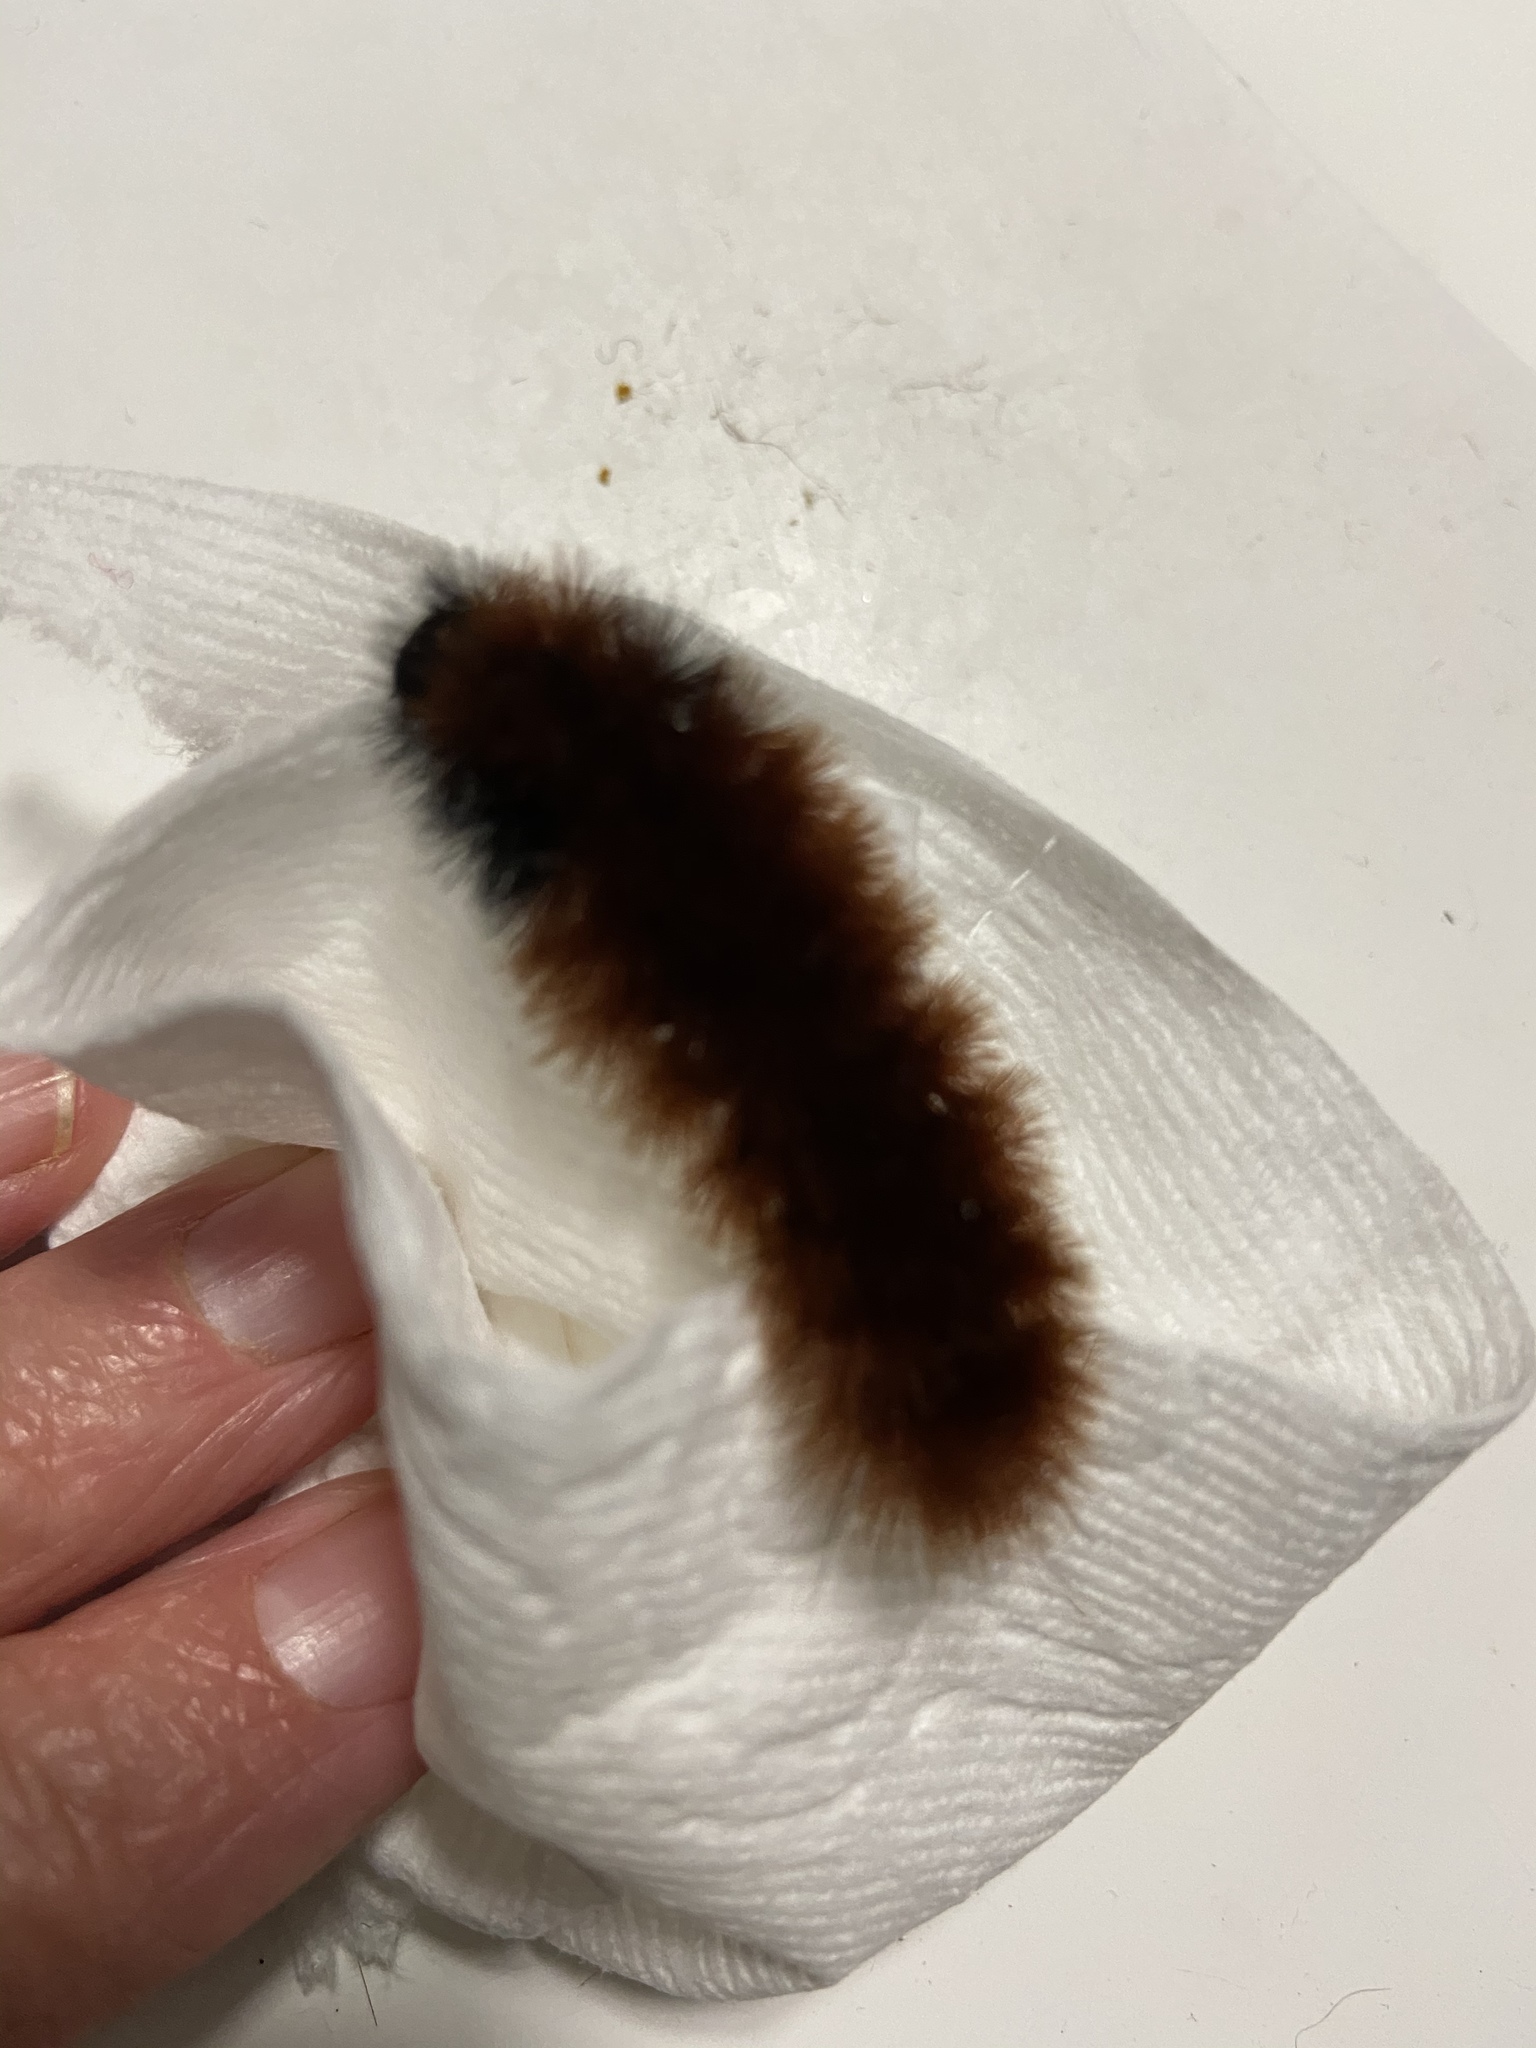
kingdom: Animalia
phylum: Arthropoda
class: Insecta
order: Lepidoptera
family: Erebidae
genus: Pyrrharctia
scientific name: Pyrrharctia isabella
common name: Isabella tiger moth
